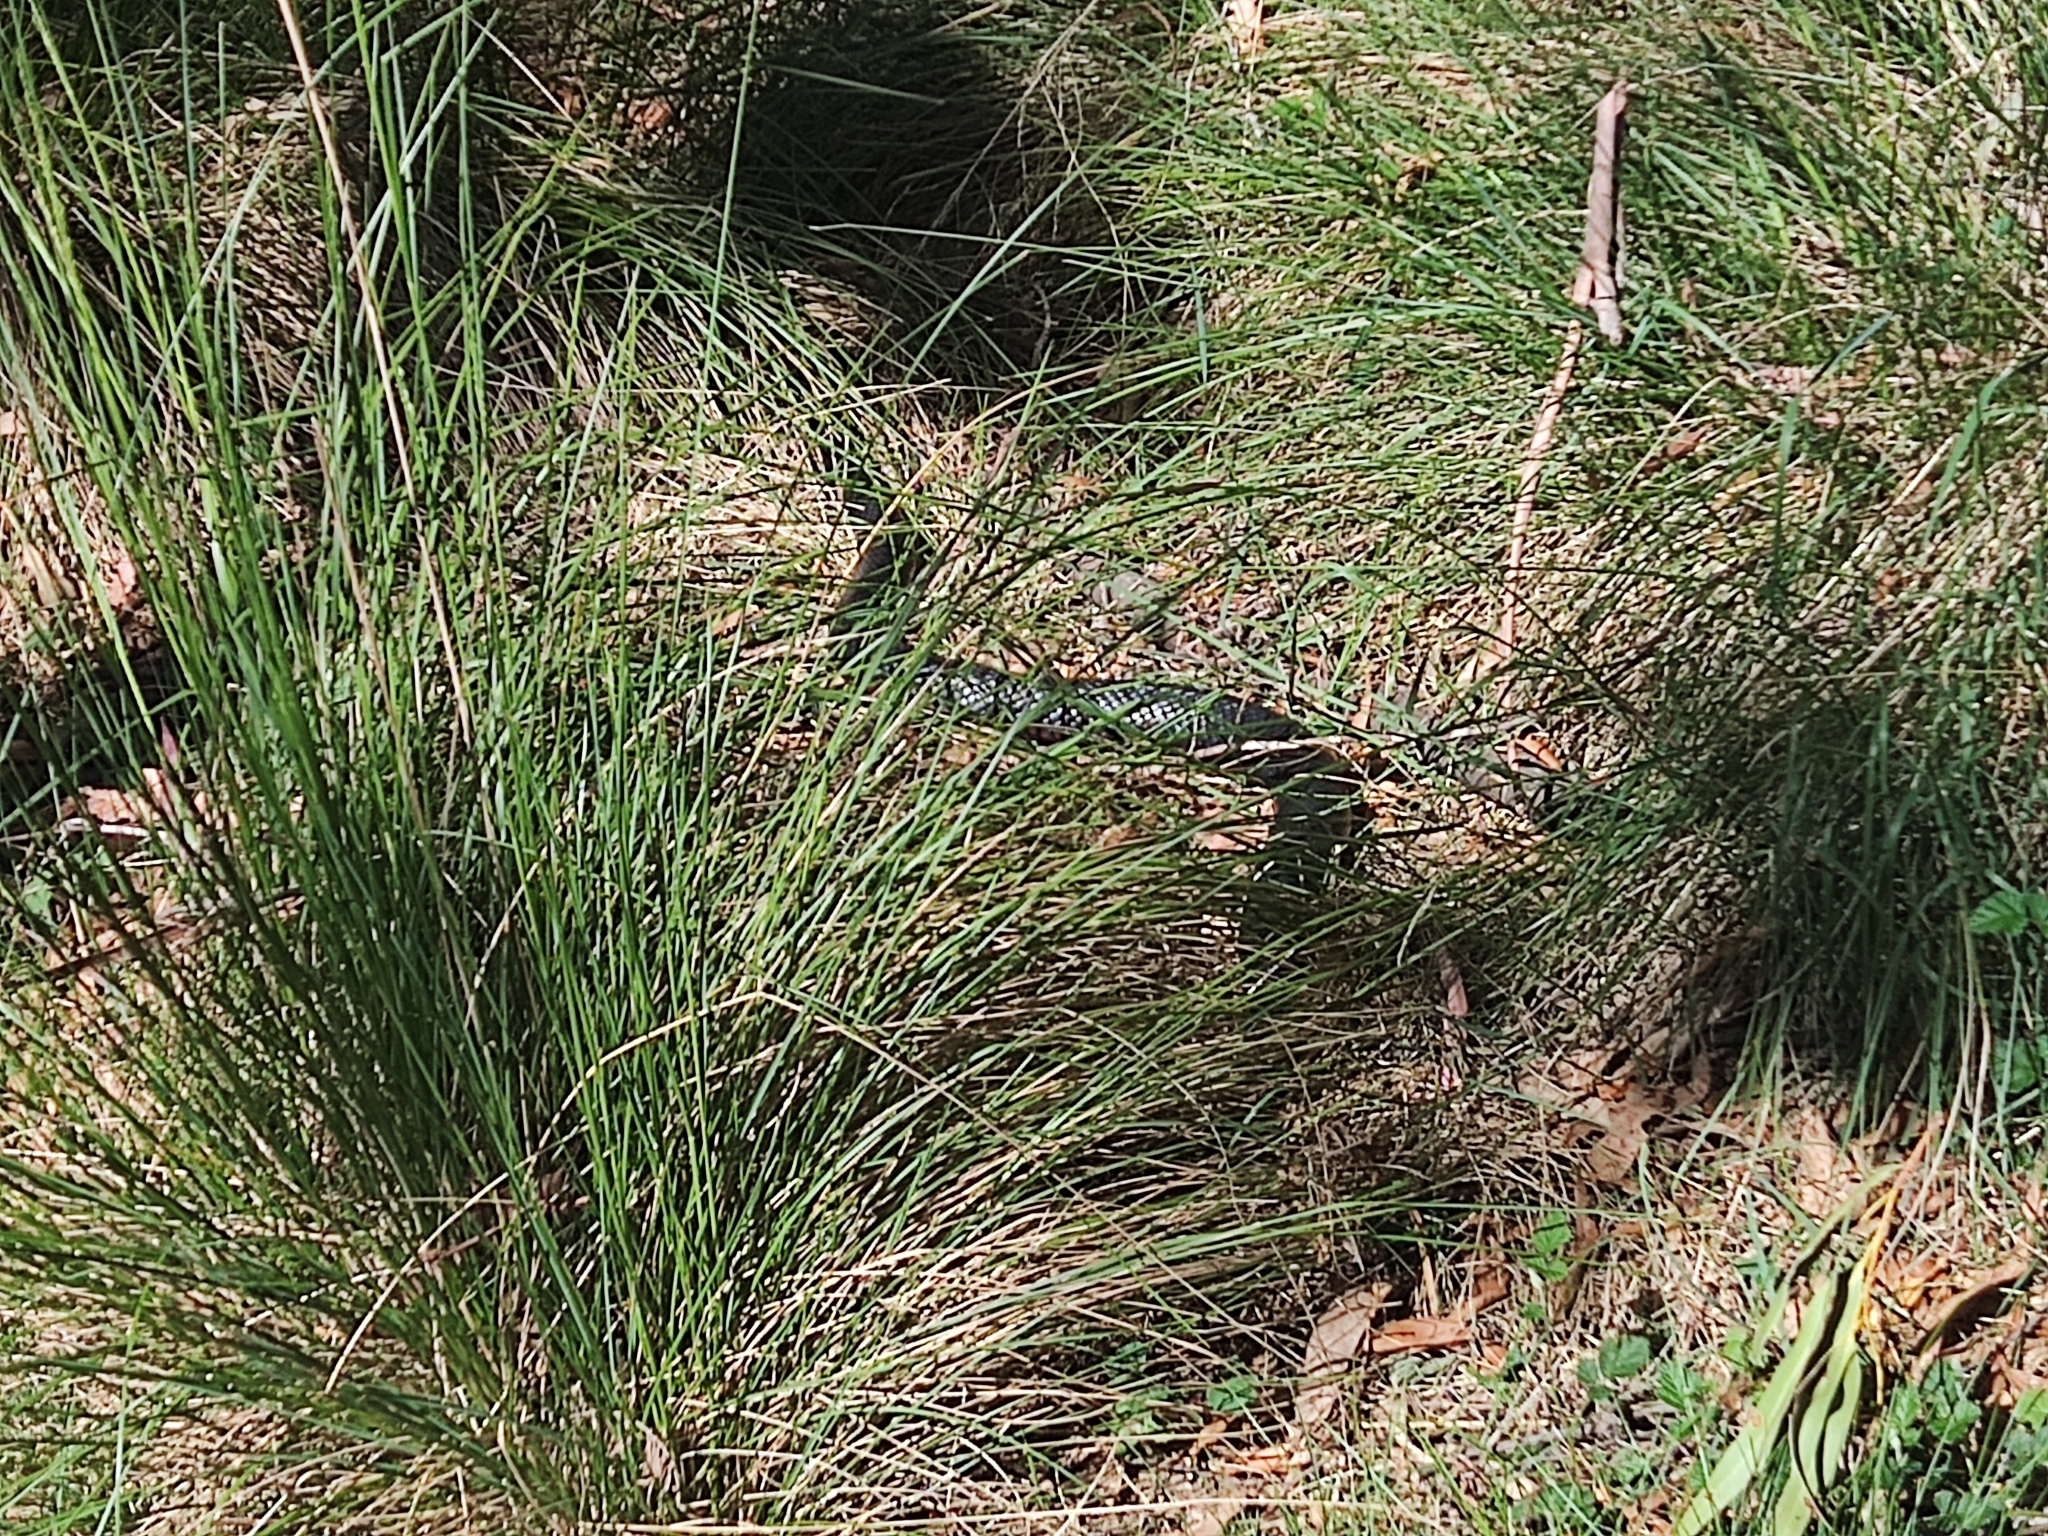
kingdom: Animalia
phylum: Chordata
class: Squamata
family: Elapidae
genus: Pseudechis
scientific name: Pseudechis porphyriacus
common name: Australian black snake
